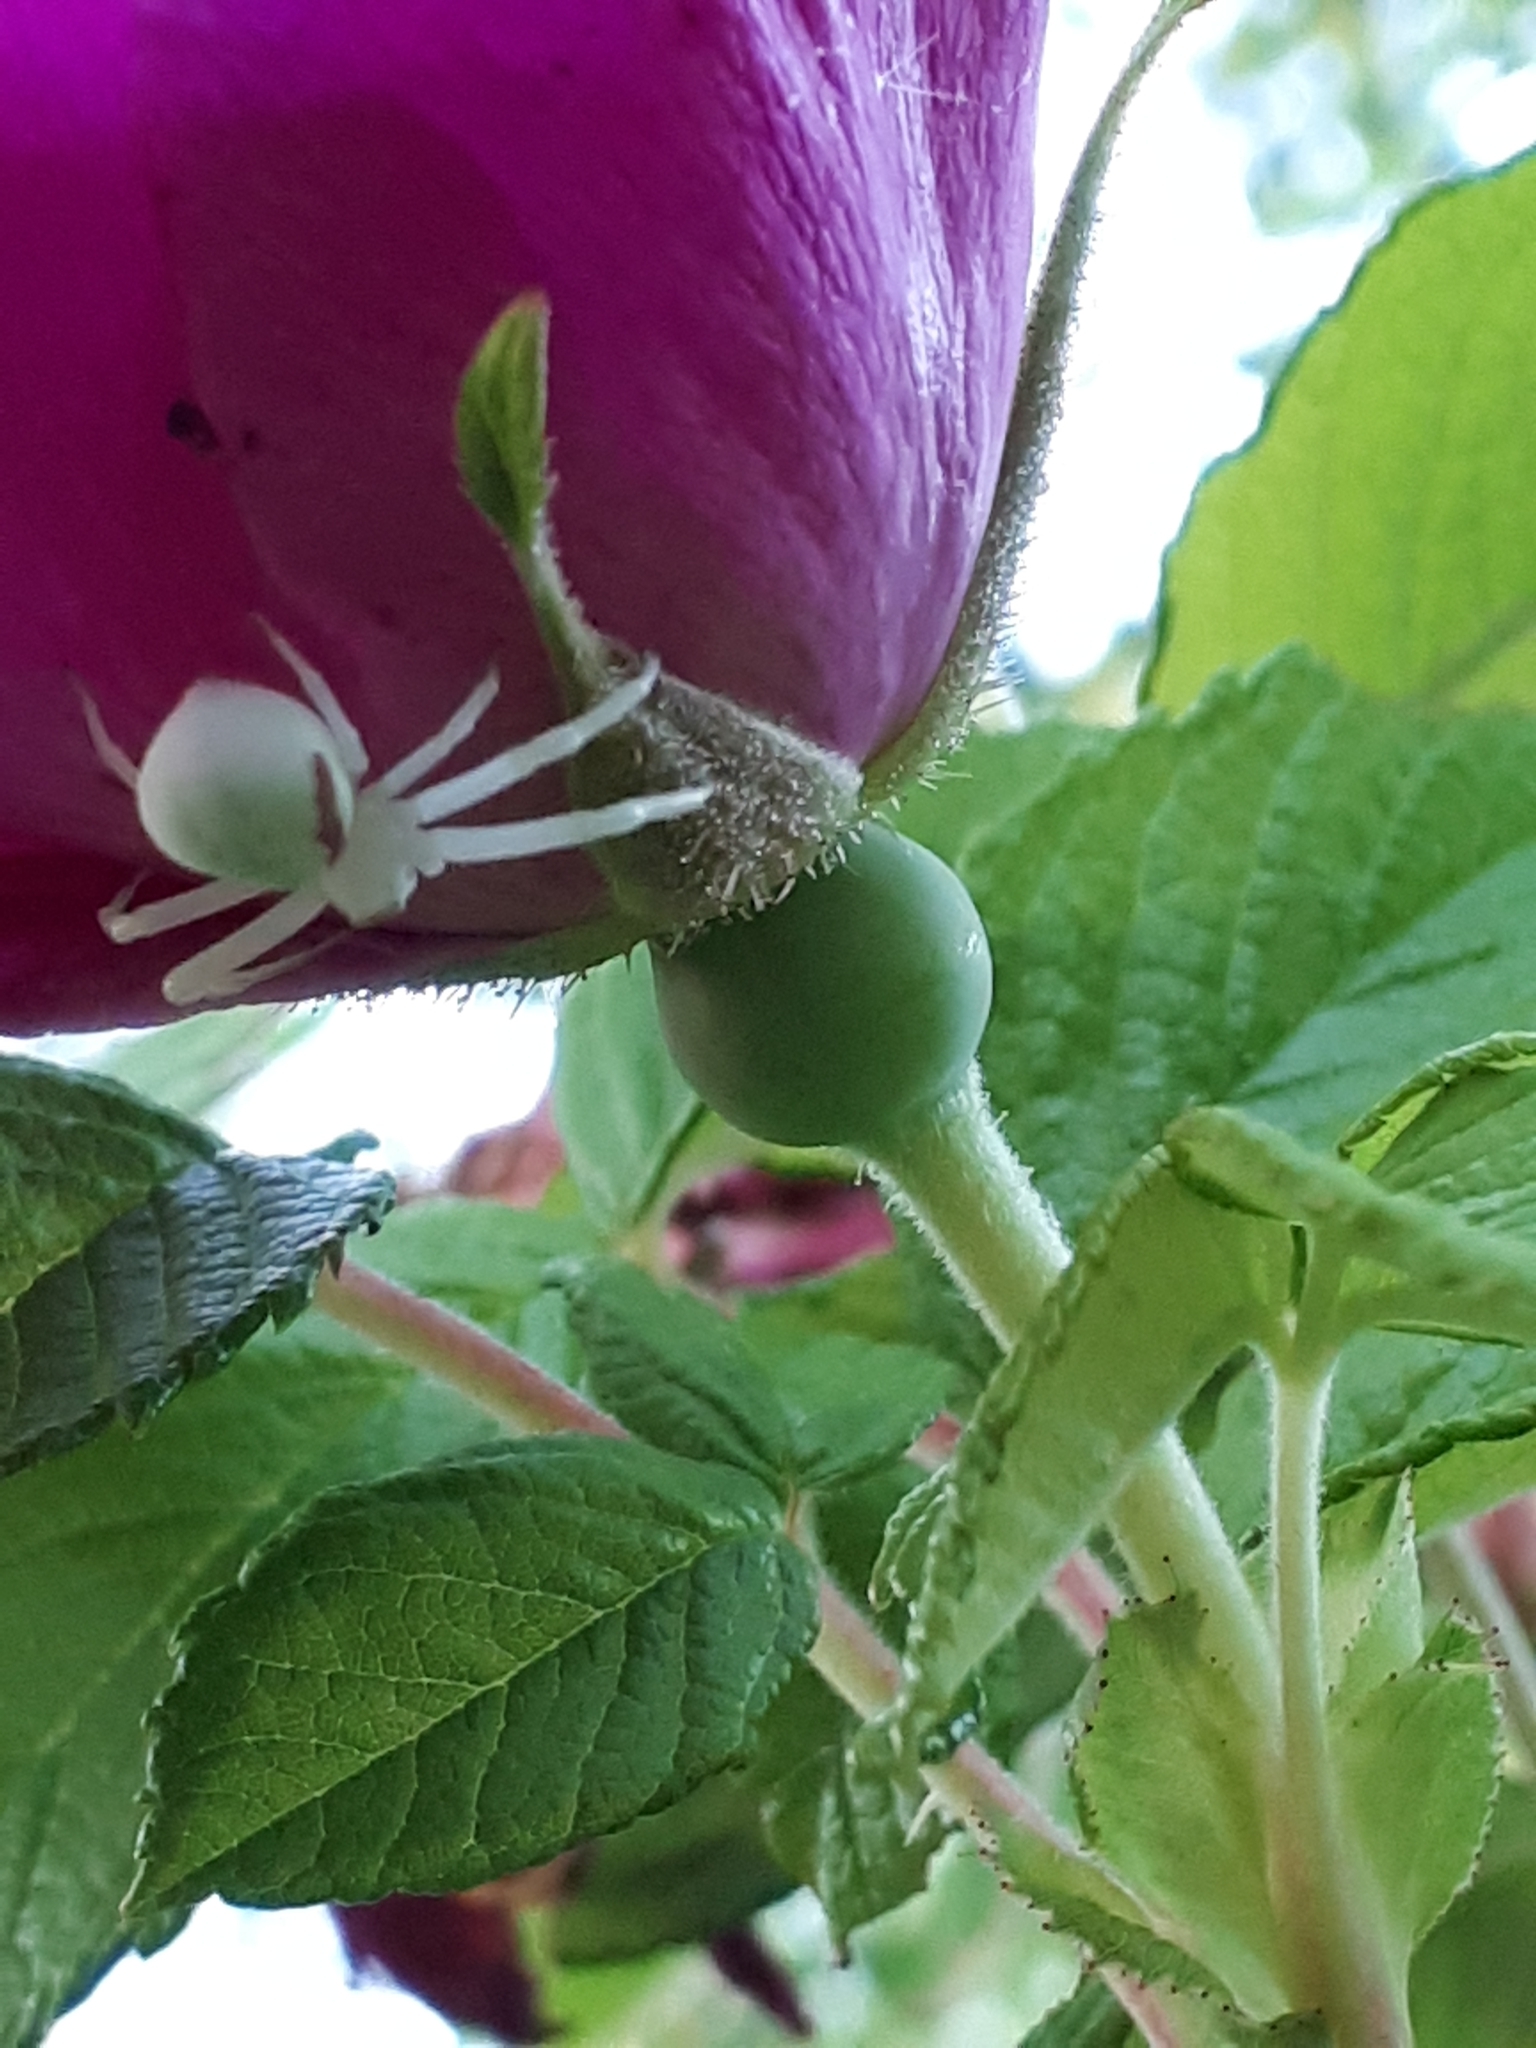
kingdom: Animalia
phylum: Arthropoda
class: Arachnida
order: Araneae
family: Thomisidae
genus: Misumena
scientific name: Misumena vatia
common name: Goldenrod crab spider
